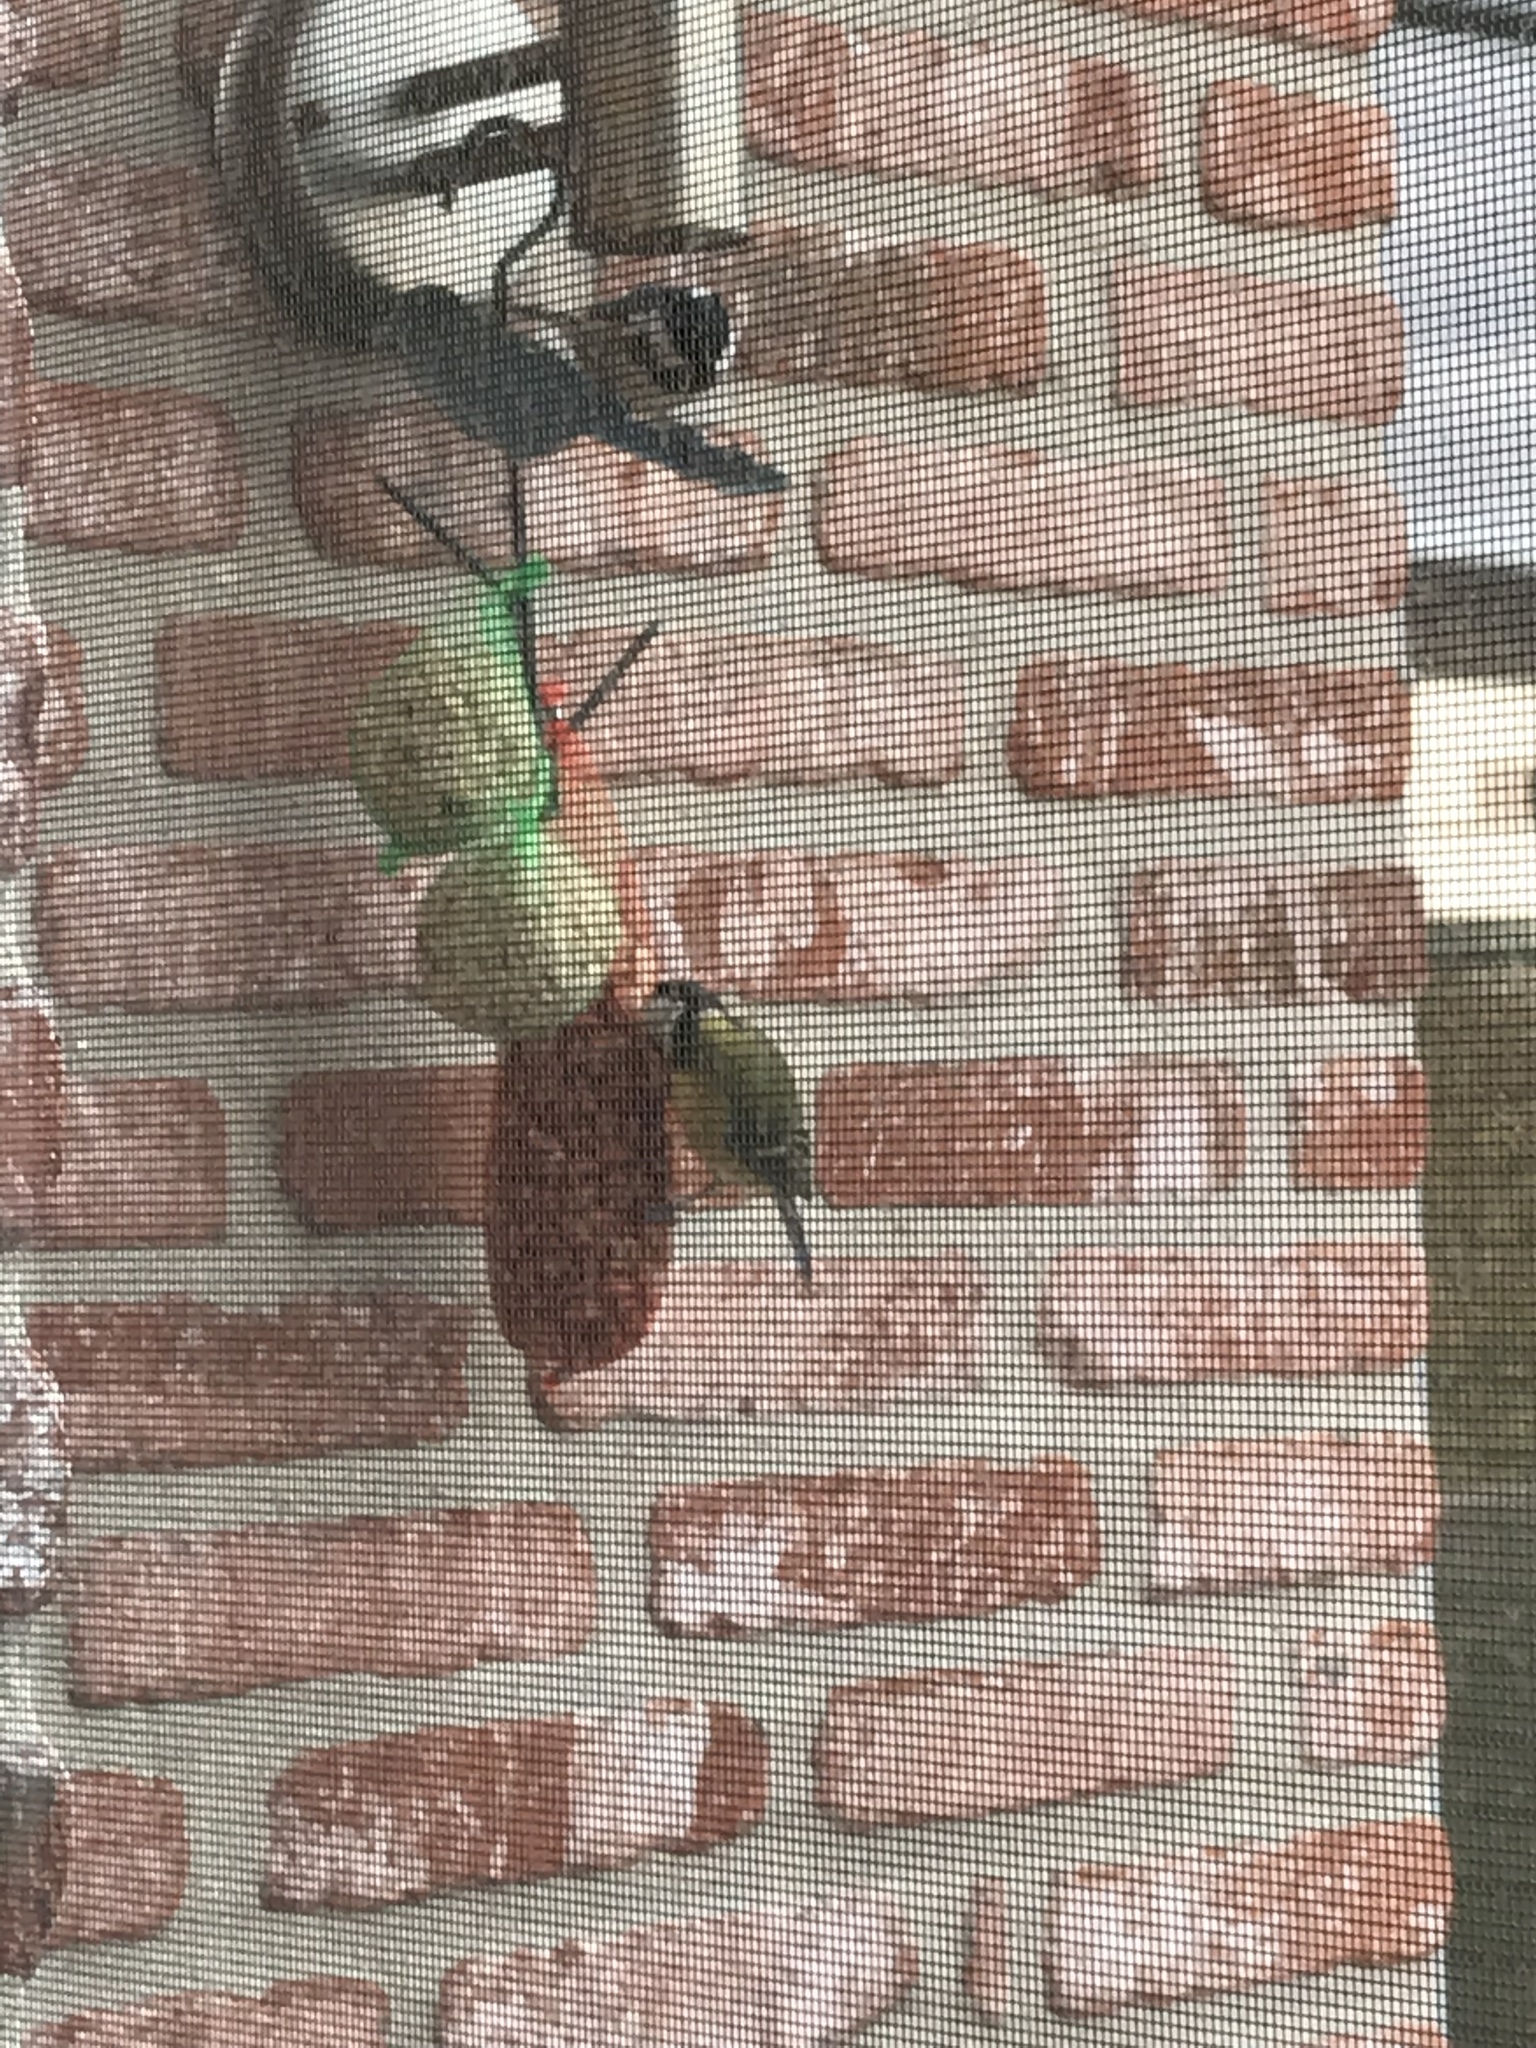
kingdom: Animalia
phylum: Chordata
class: Aves
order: Passeriformes
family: Paridae
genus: Parus
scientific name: Parus major
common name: Great tit
